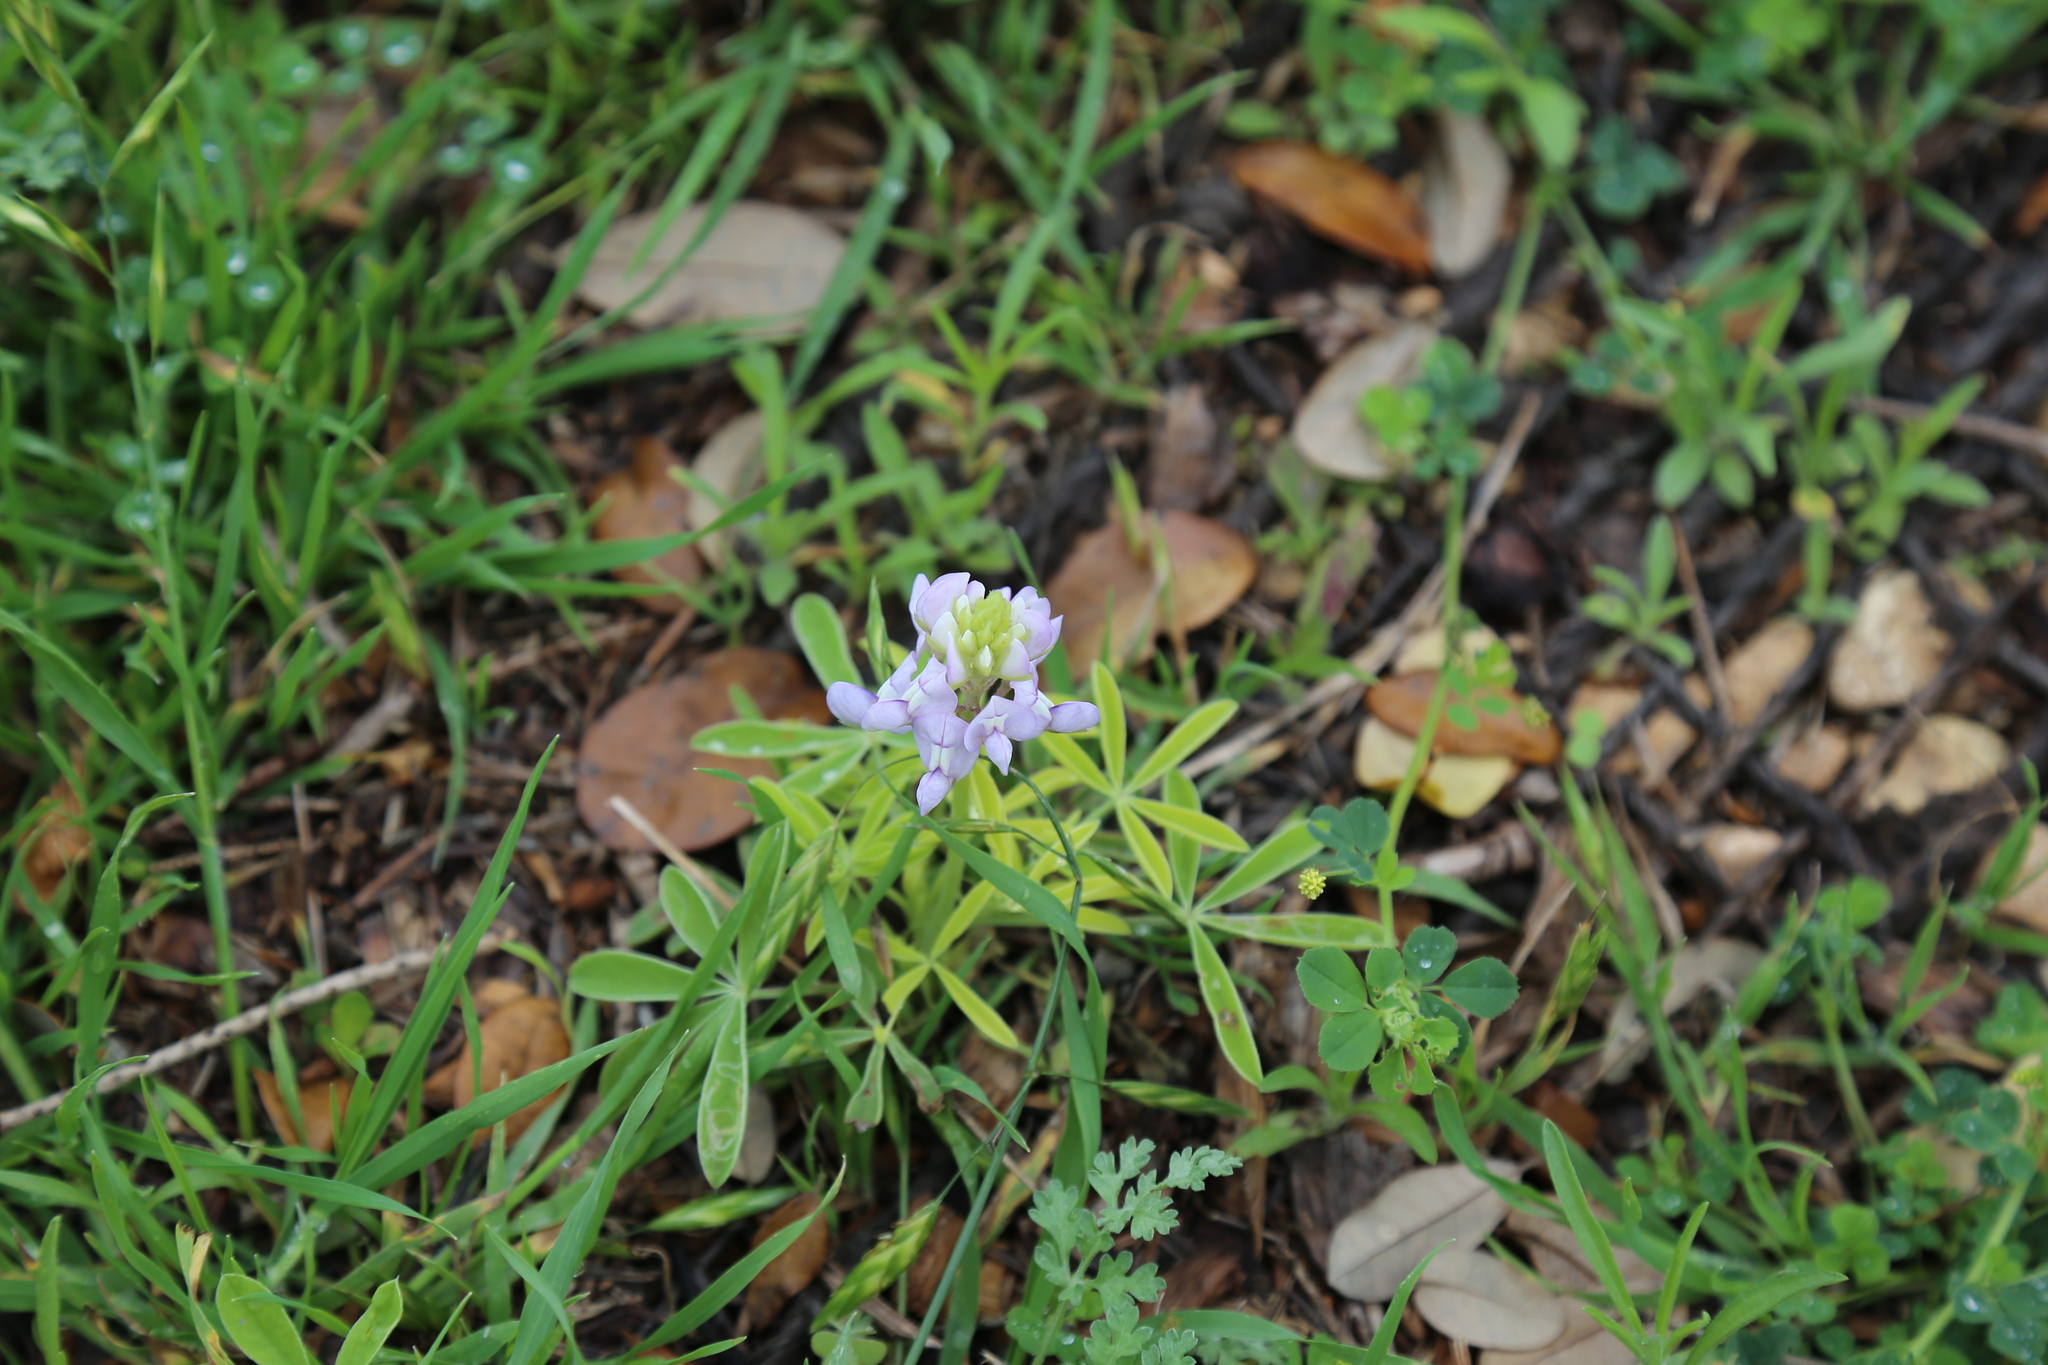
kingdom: Plantae
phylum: Tracheophyta
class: Magnoliopsida
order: Fabales
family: Fabaceae
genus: Lupinus
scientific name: Lupinus texensis
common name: Texas bluebonnet
